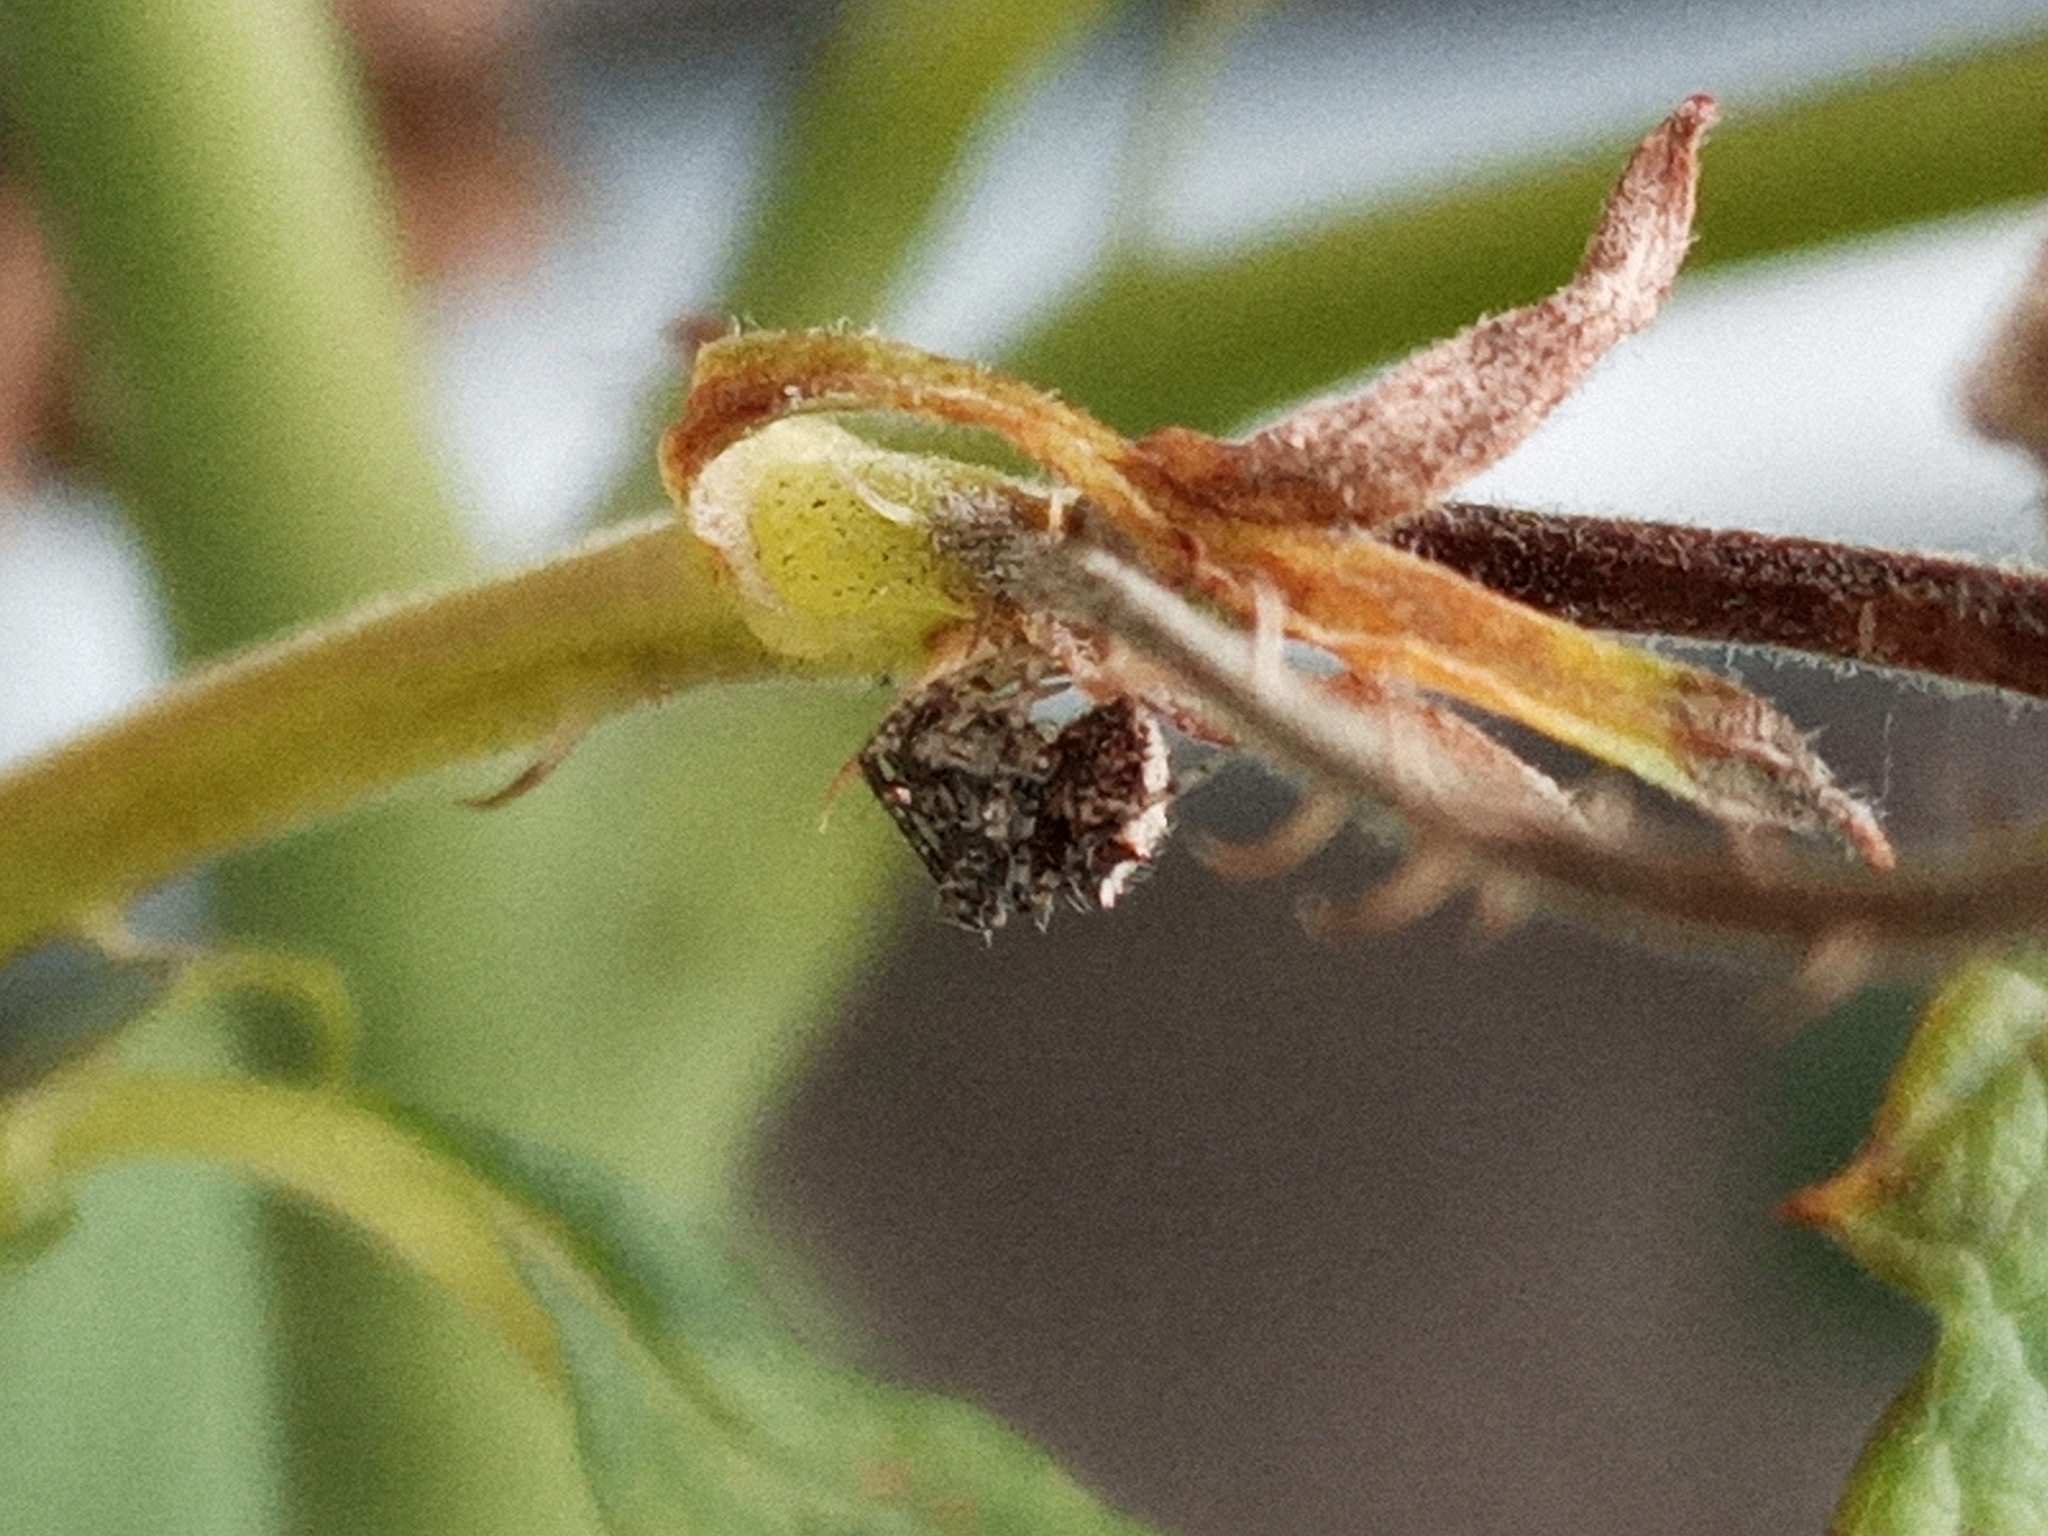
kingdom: Animalia
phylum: Arthropoda
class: Arachnida
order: Araneae
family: Mimetidae
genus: Ero
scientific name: Ero aphana
